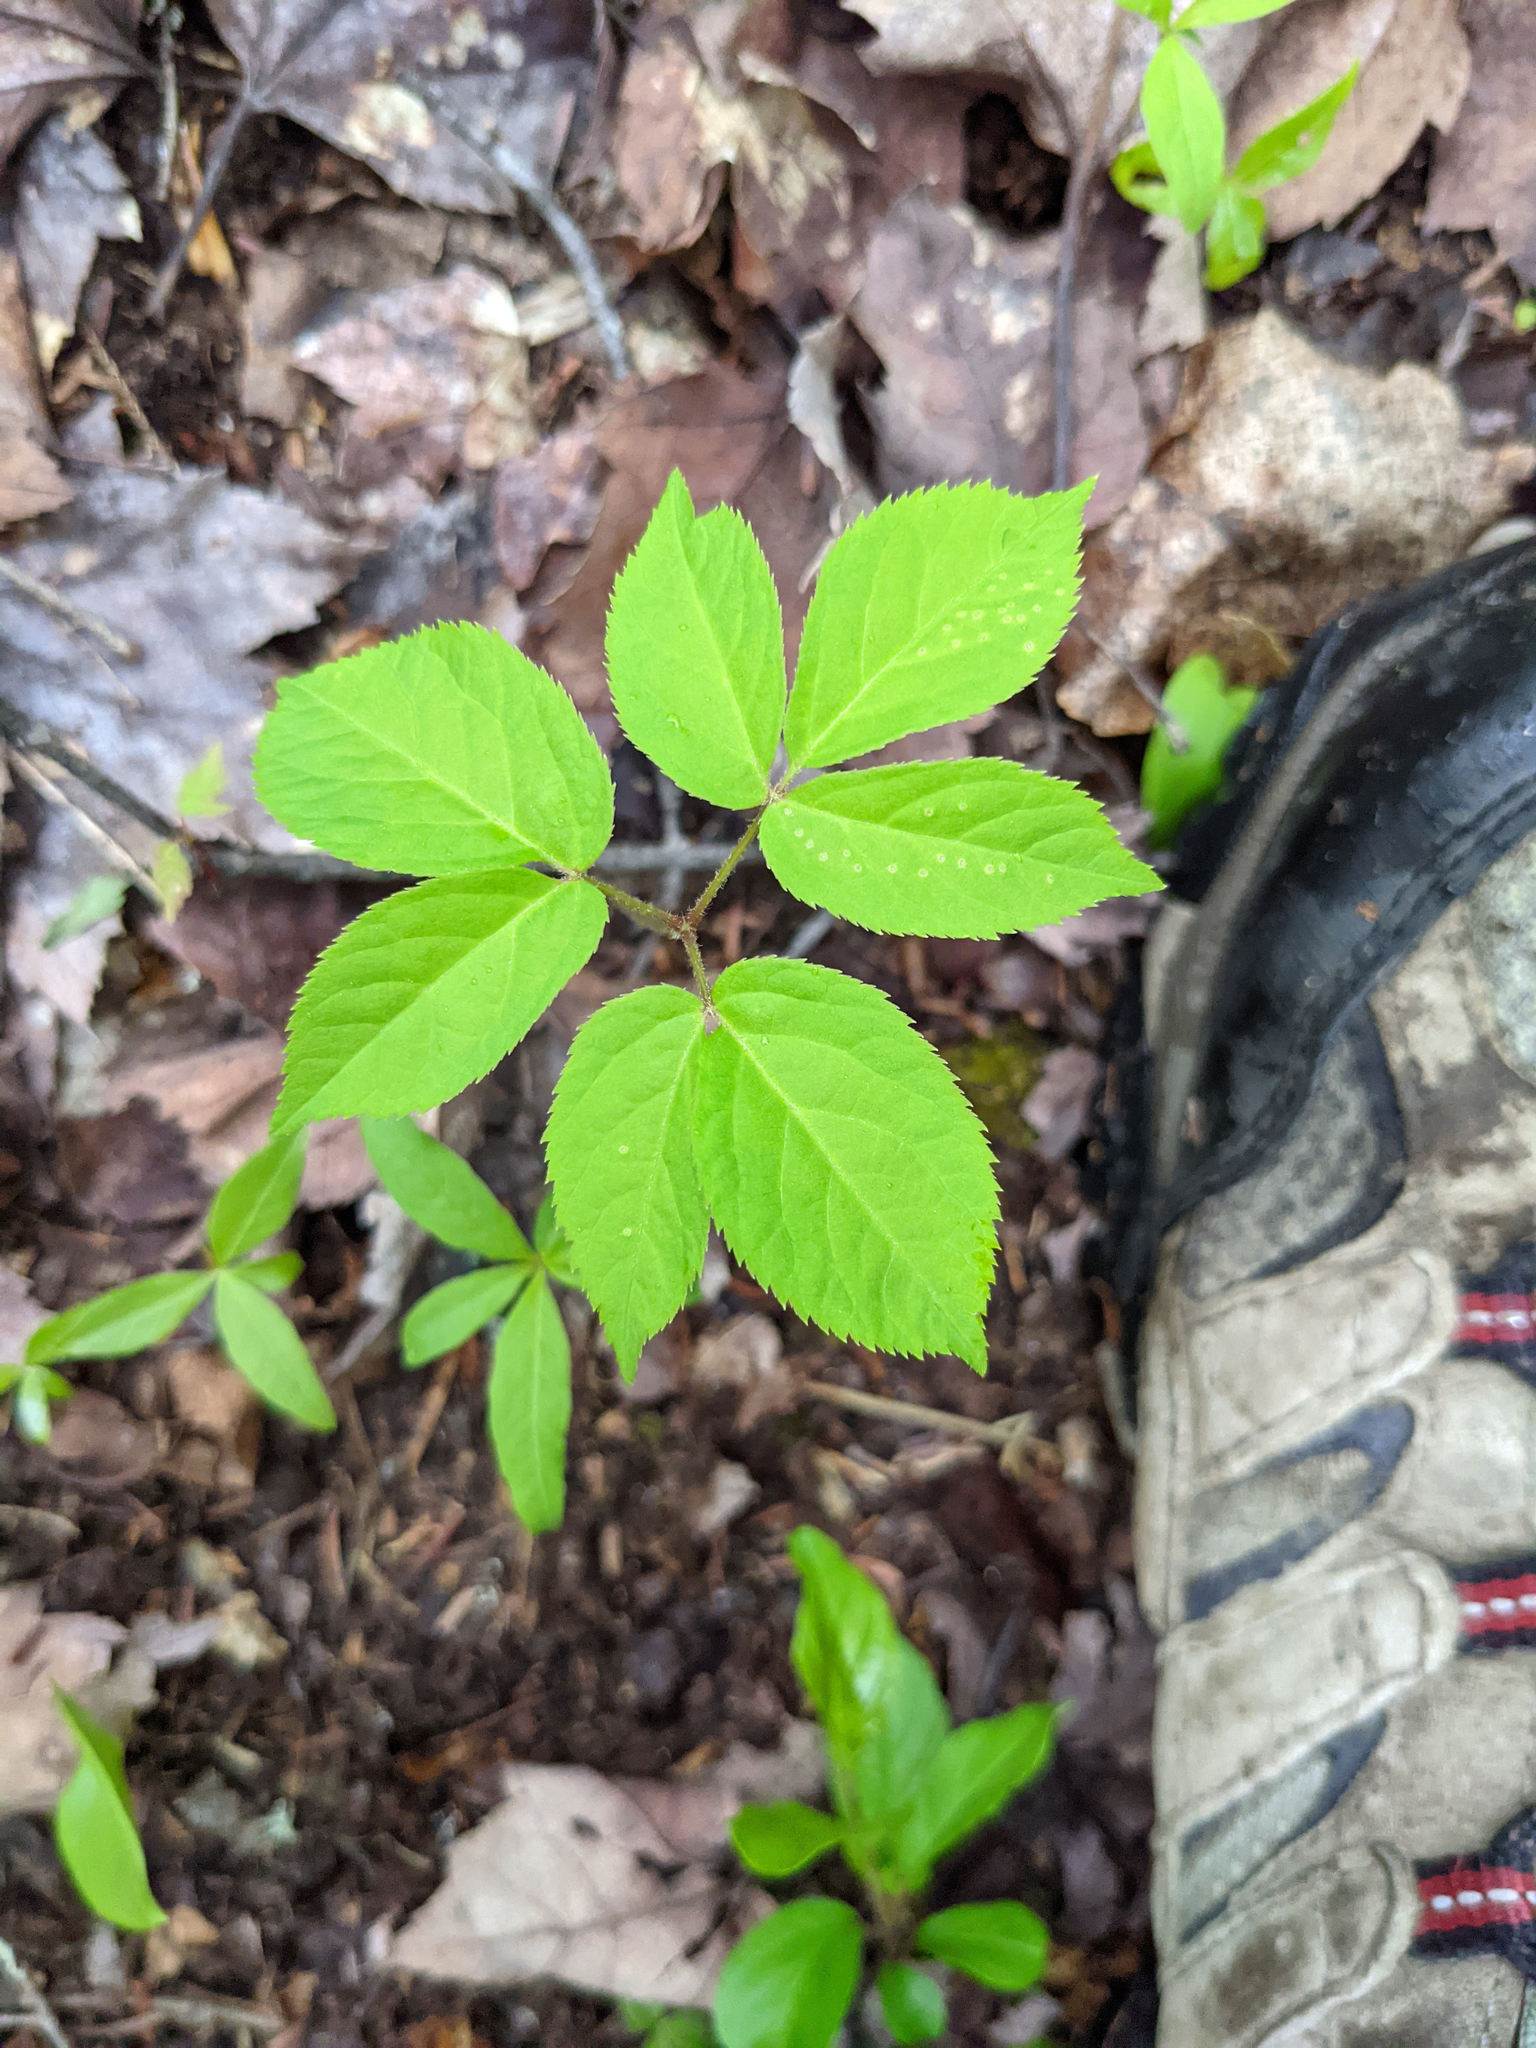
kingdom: Plantae
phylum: Tracheophyta
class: Magnoliopsida
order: Apiales
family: Araliaceae
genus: Aralia
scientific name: Aralia nudicaulis
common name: Wild sarsaparilla
